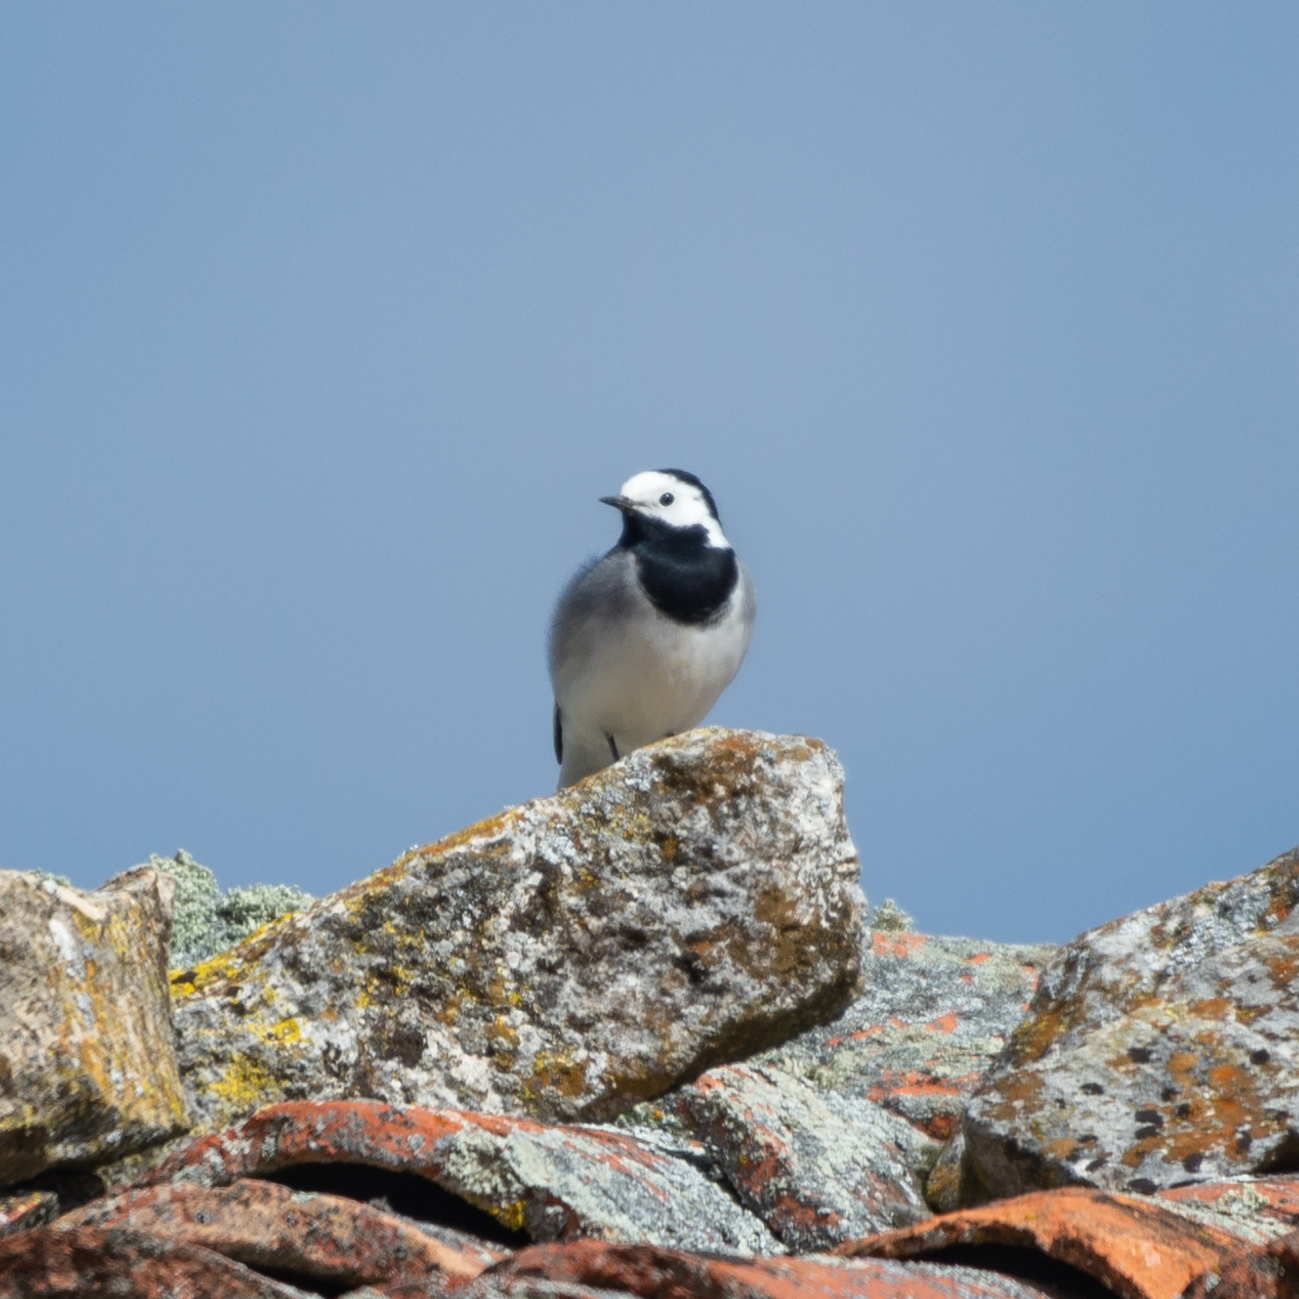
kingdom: Animalia
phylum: Chordata
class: Aves
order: Passeriformes
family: Motacillidae
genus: Motacilla
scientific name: Motacilla alba
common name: White wagtail
